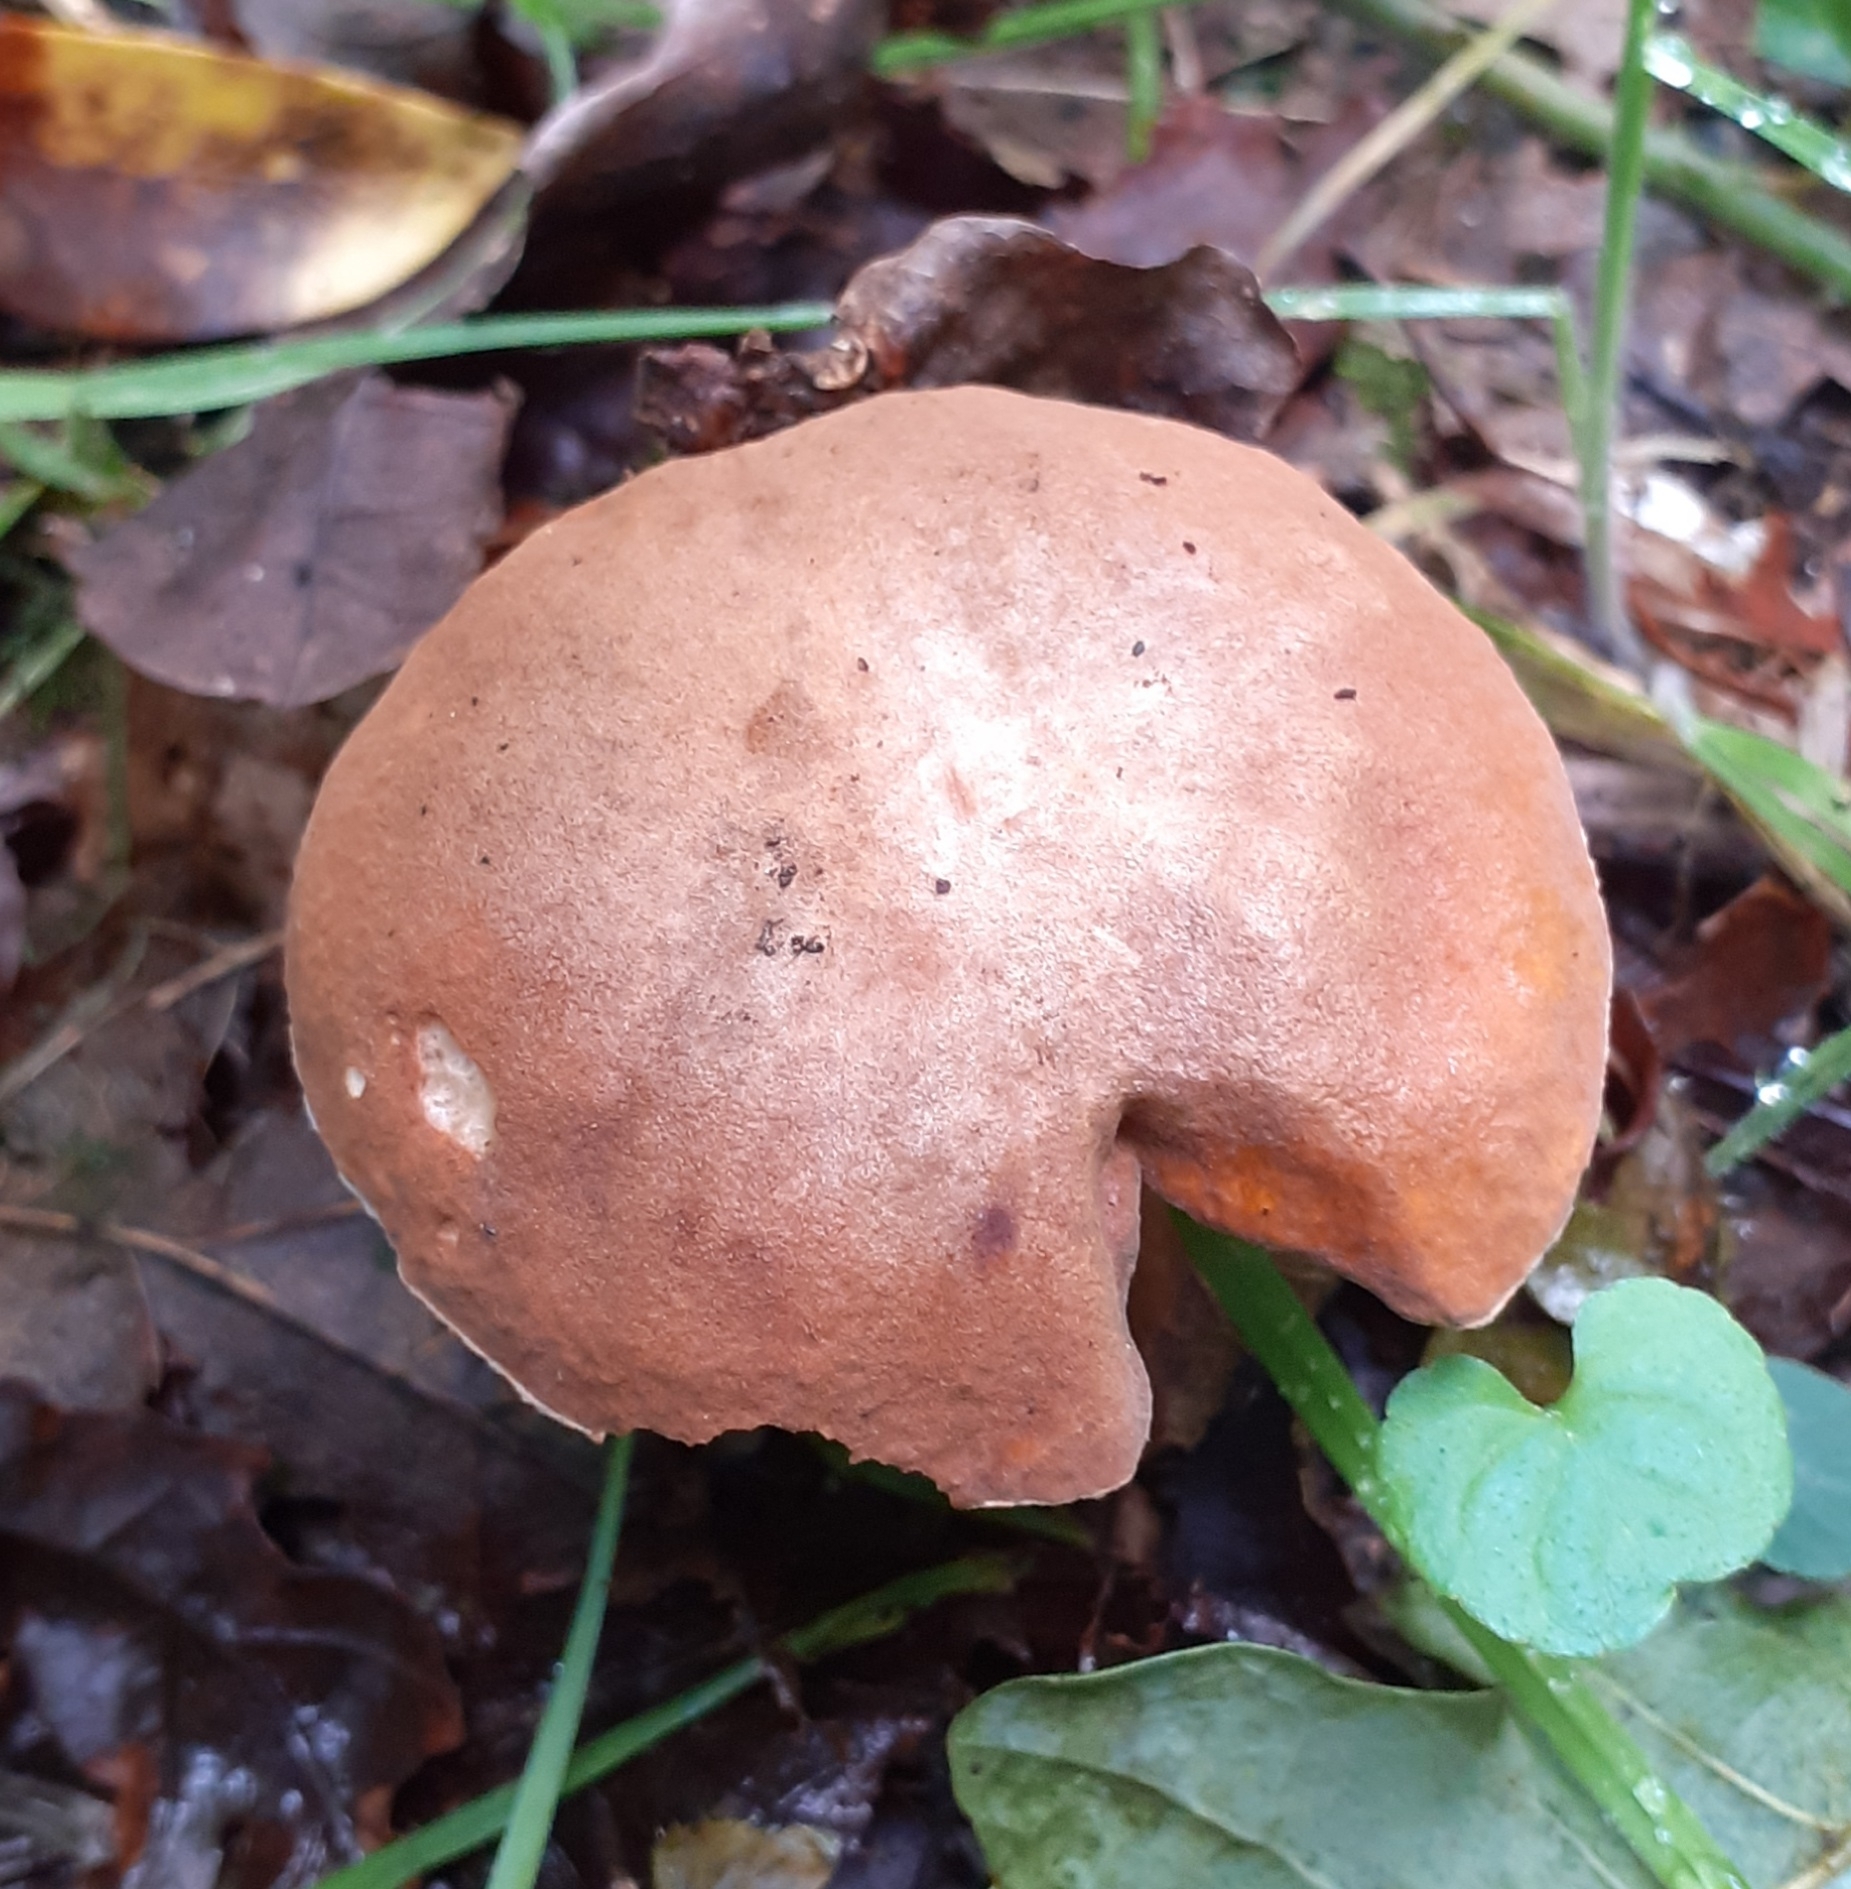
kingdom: Fungi
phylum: Basidiomycota
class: Agaricomycetes
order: Boletales
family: Gyroporaceae
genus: Gyroporus
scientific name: Gyroporus castaneus
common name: Chestnut bolete
